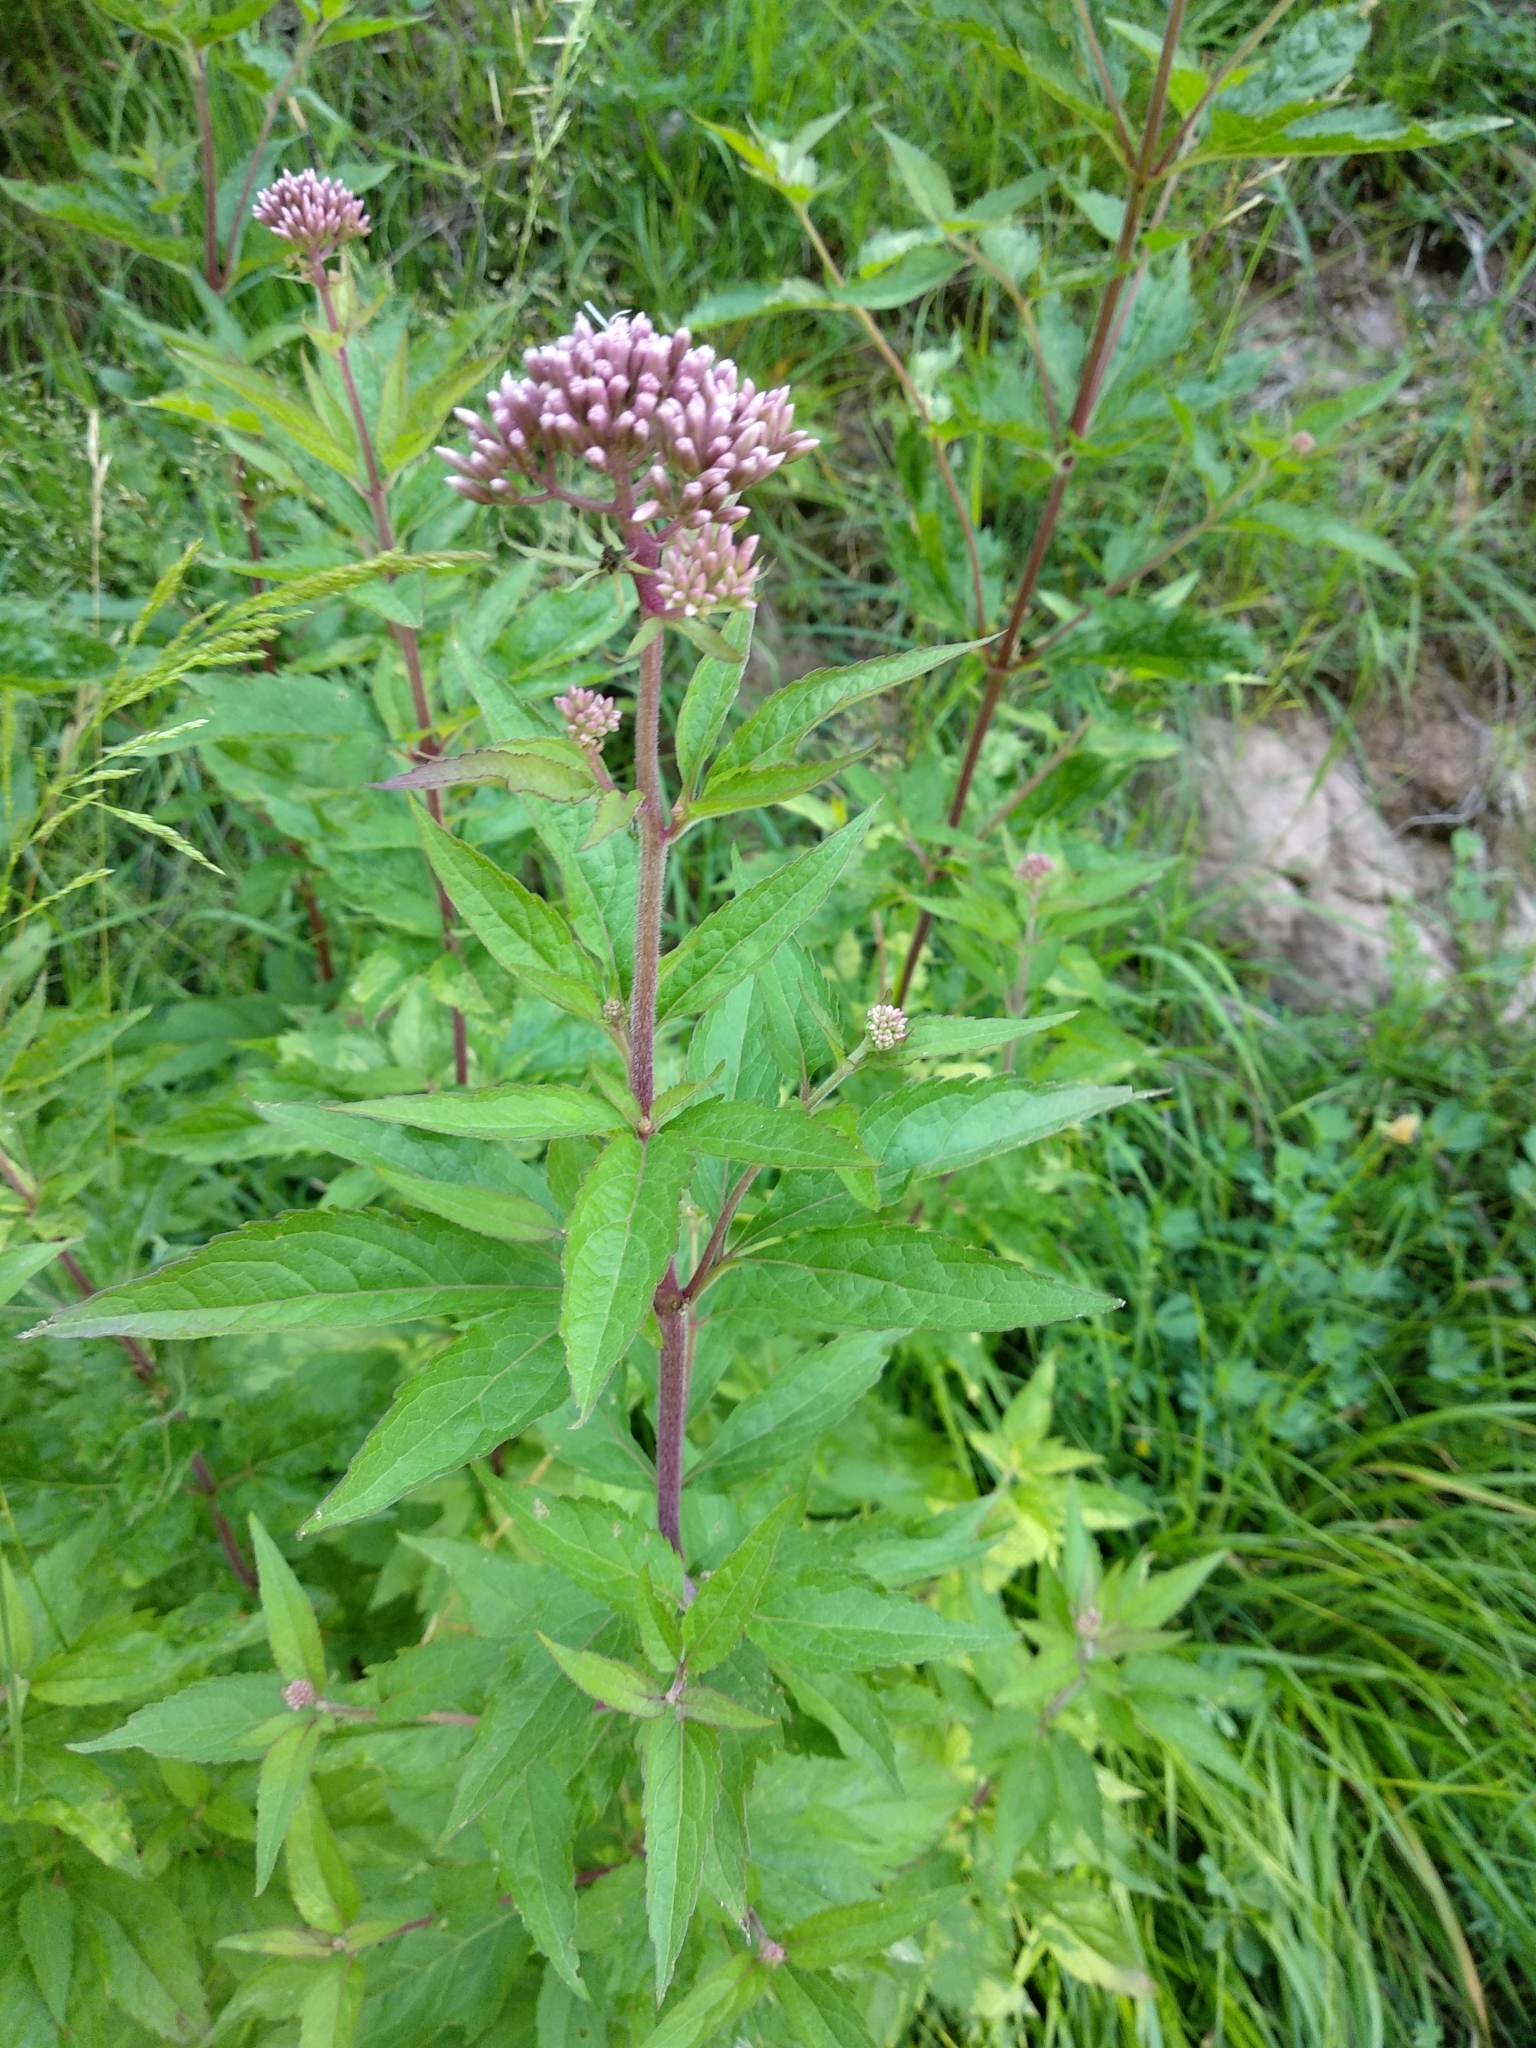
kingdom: Plantae
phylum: Tracheophyta
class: Magnoliopsida
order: Asterales
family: Asteraceae
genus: Eupatorium
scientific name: Eupatorium cannabinum
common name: Hemp-agrimony
